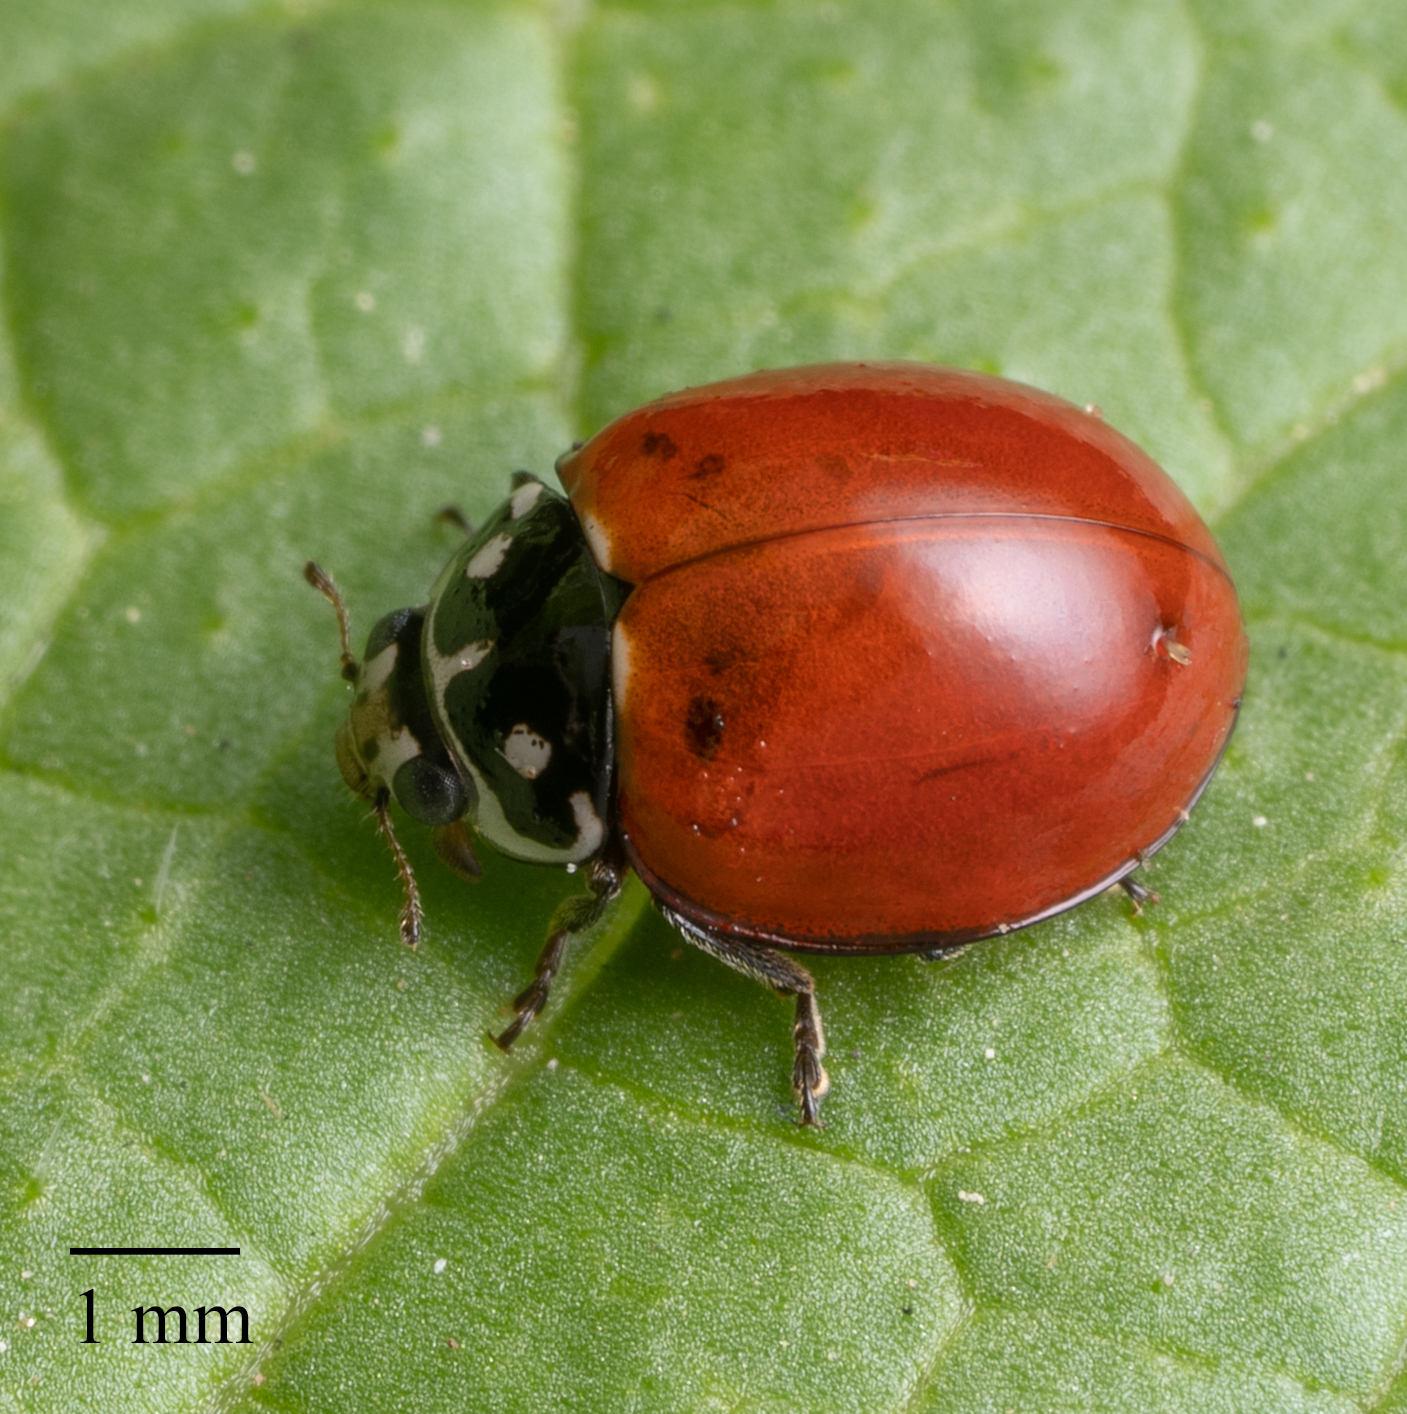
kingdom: Animalia
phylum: Arthropoda
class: Insecta
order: Coleoptera
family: Coccinellidae
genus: Cycloneda
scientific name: Cycloneda sanguinea
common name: Ladybird beetle
